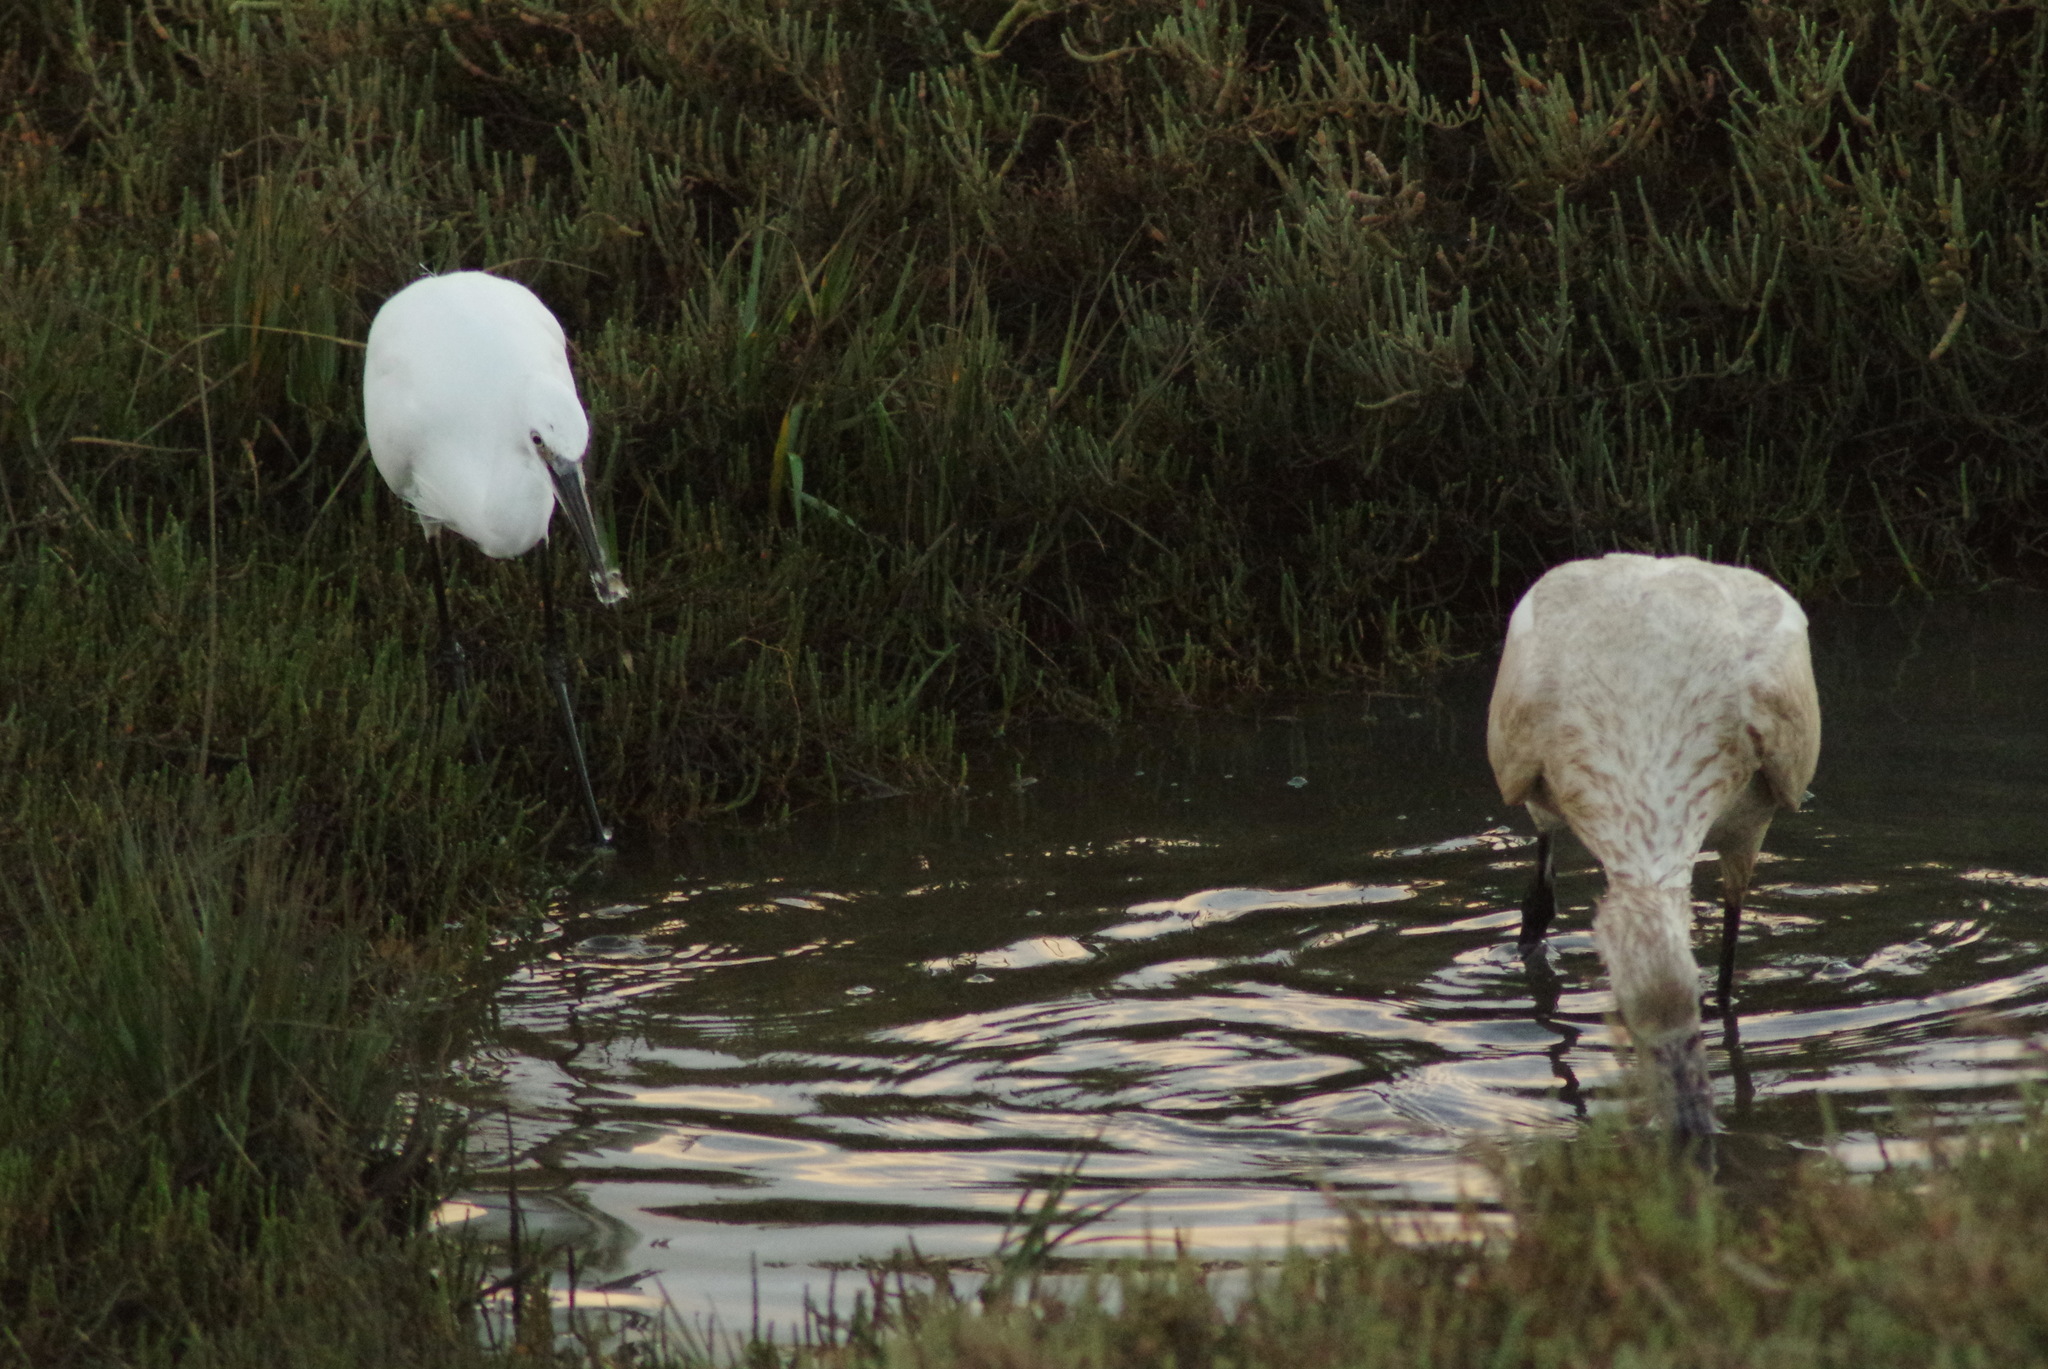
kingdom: Animalia
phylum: Chordata
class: Aves
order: Pelecaniformes
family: Ardeidae
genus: Egretta
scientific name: Egretta garzetta
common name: Little egret
